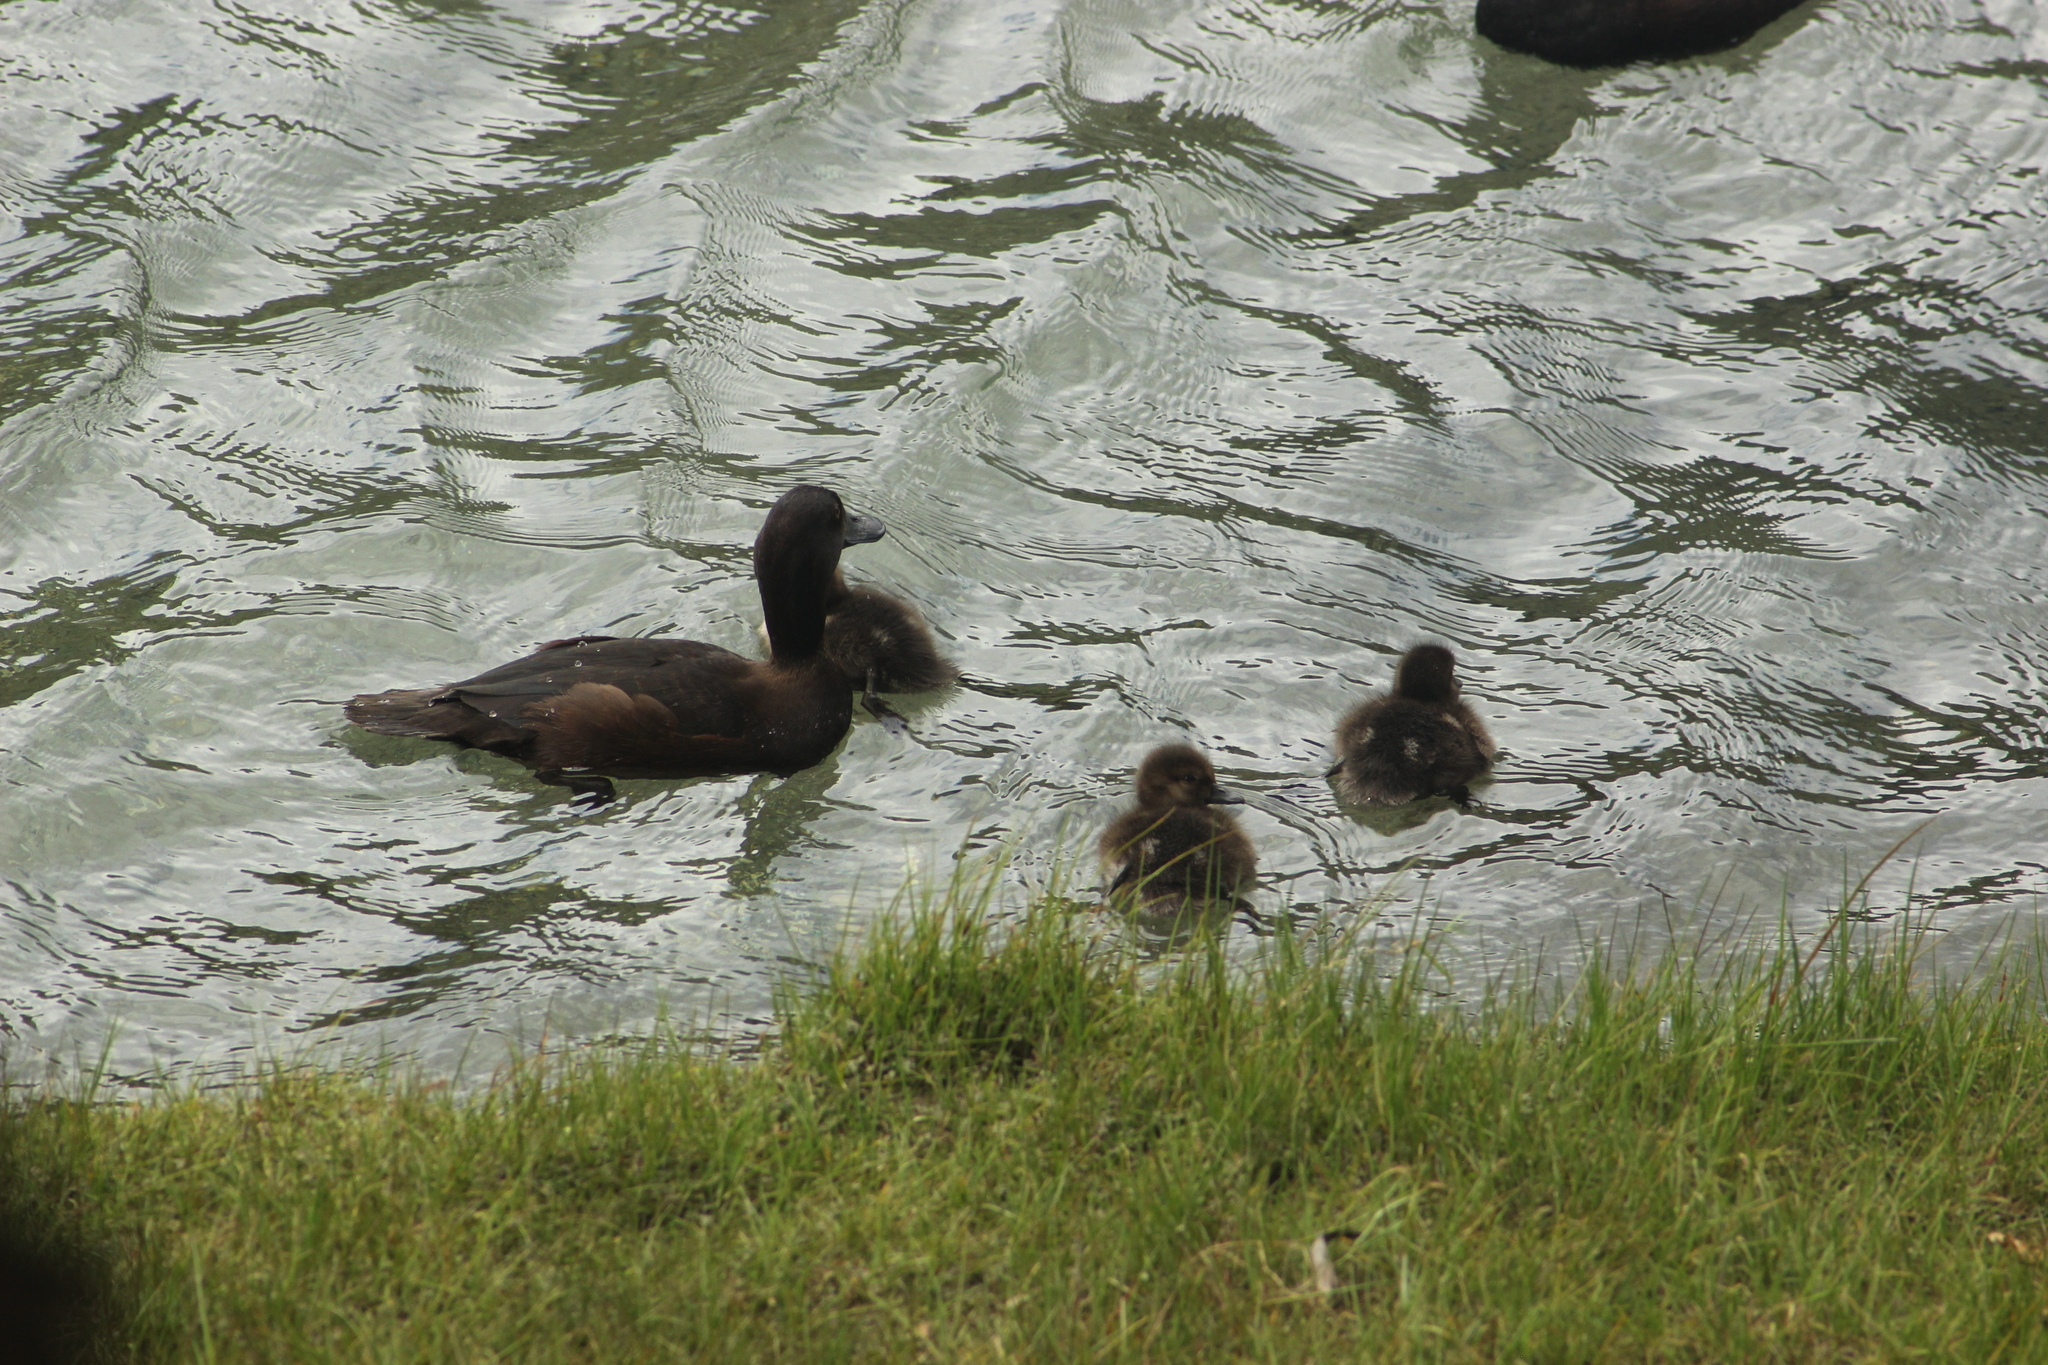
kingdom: Animalia
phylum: Chordata
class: Aves
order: Anseriformes
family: Anatidae
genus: Aythya
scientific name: Aythya novaeseelandiae
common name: New zealand scaup
